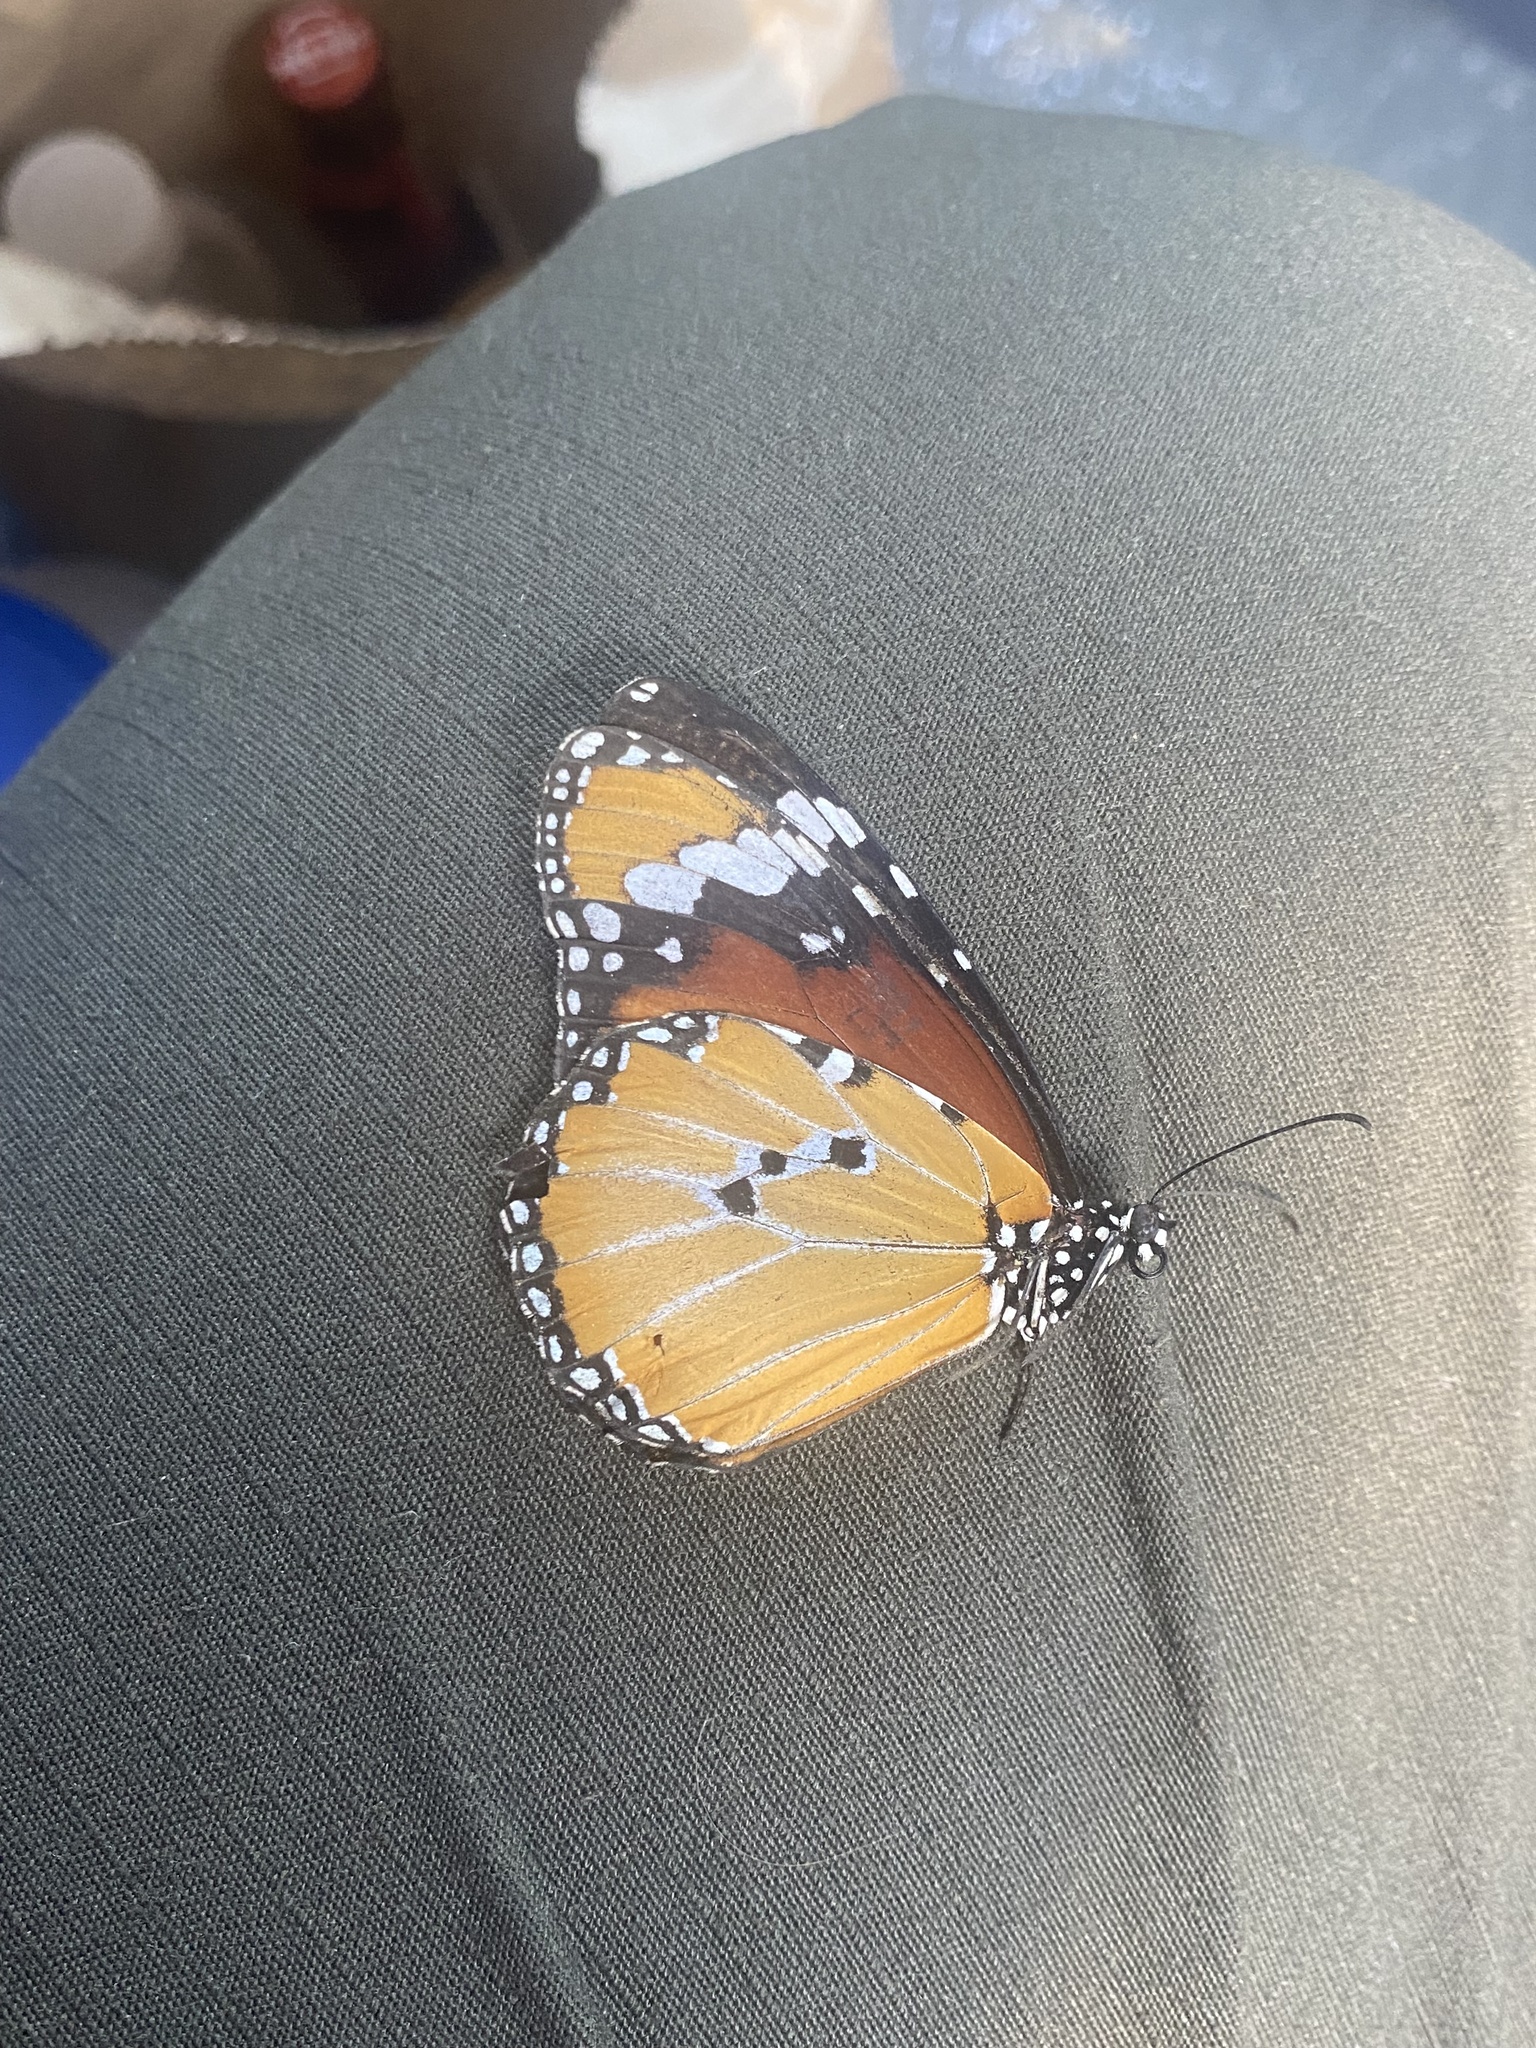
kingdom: Animalia
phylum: Arthropoda
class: Insecta
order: Lepidoptera
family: Nymphalidae
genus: Danaus
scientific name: Danaus chrysippus
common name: Plain tiger
